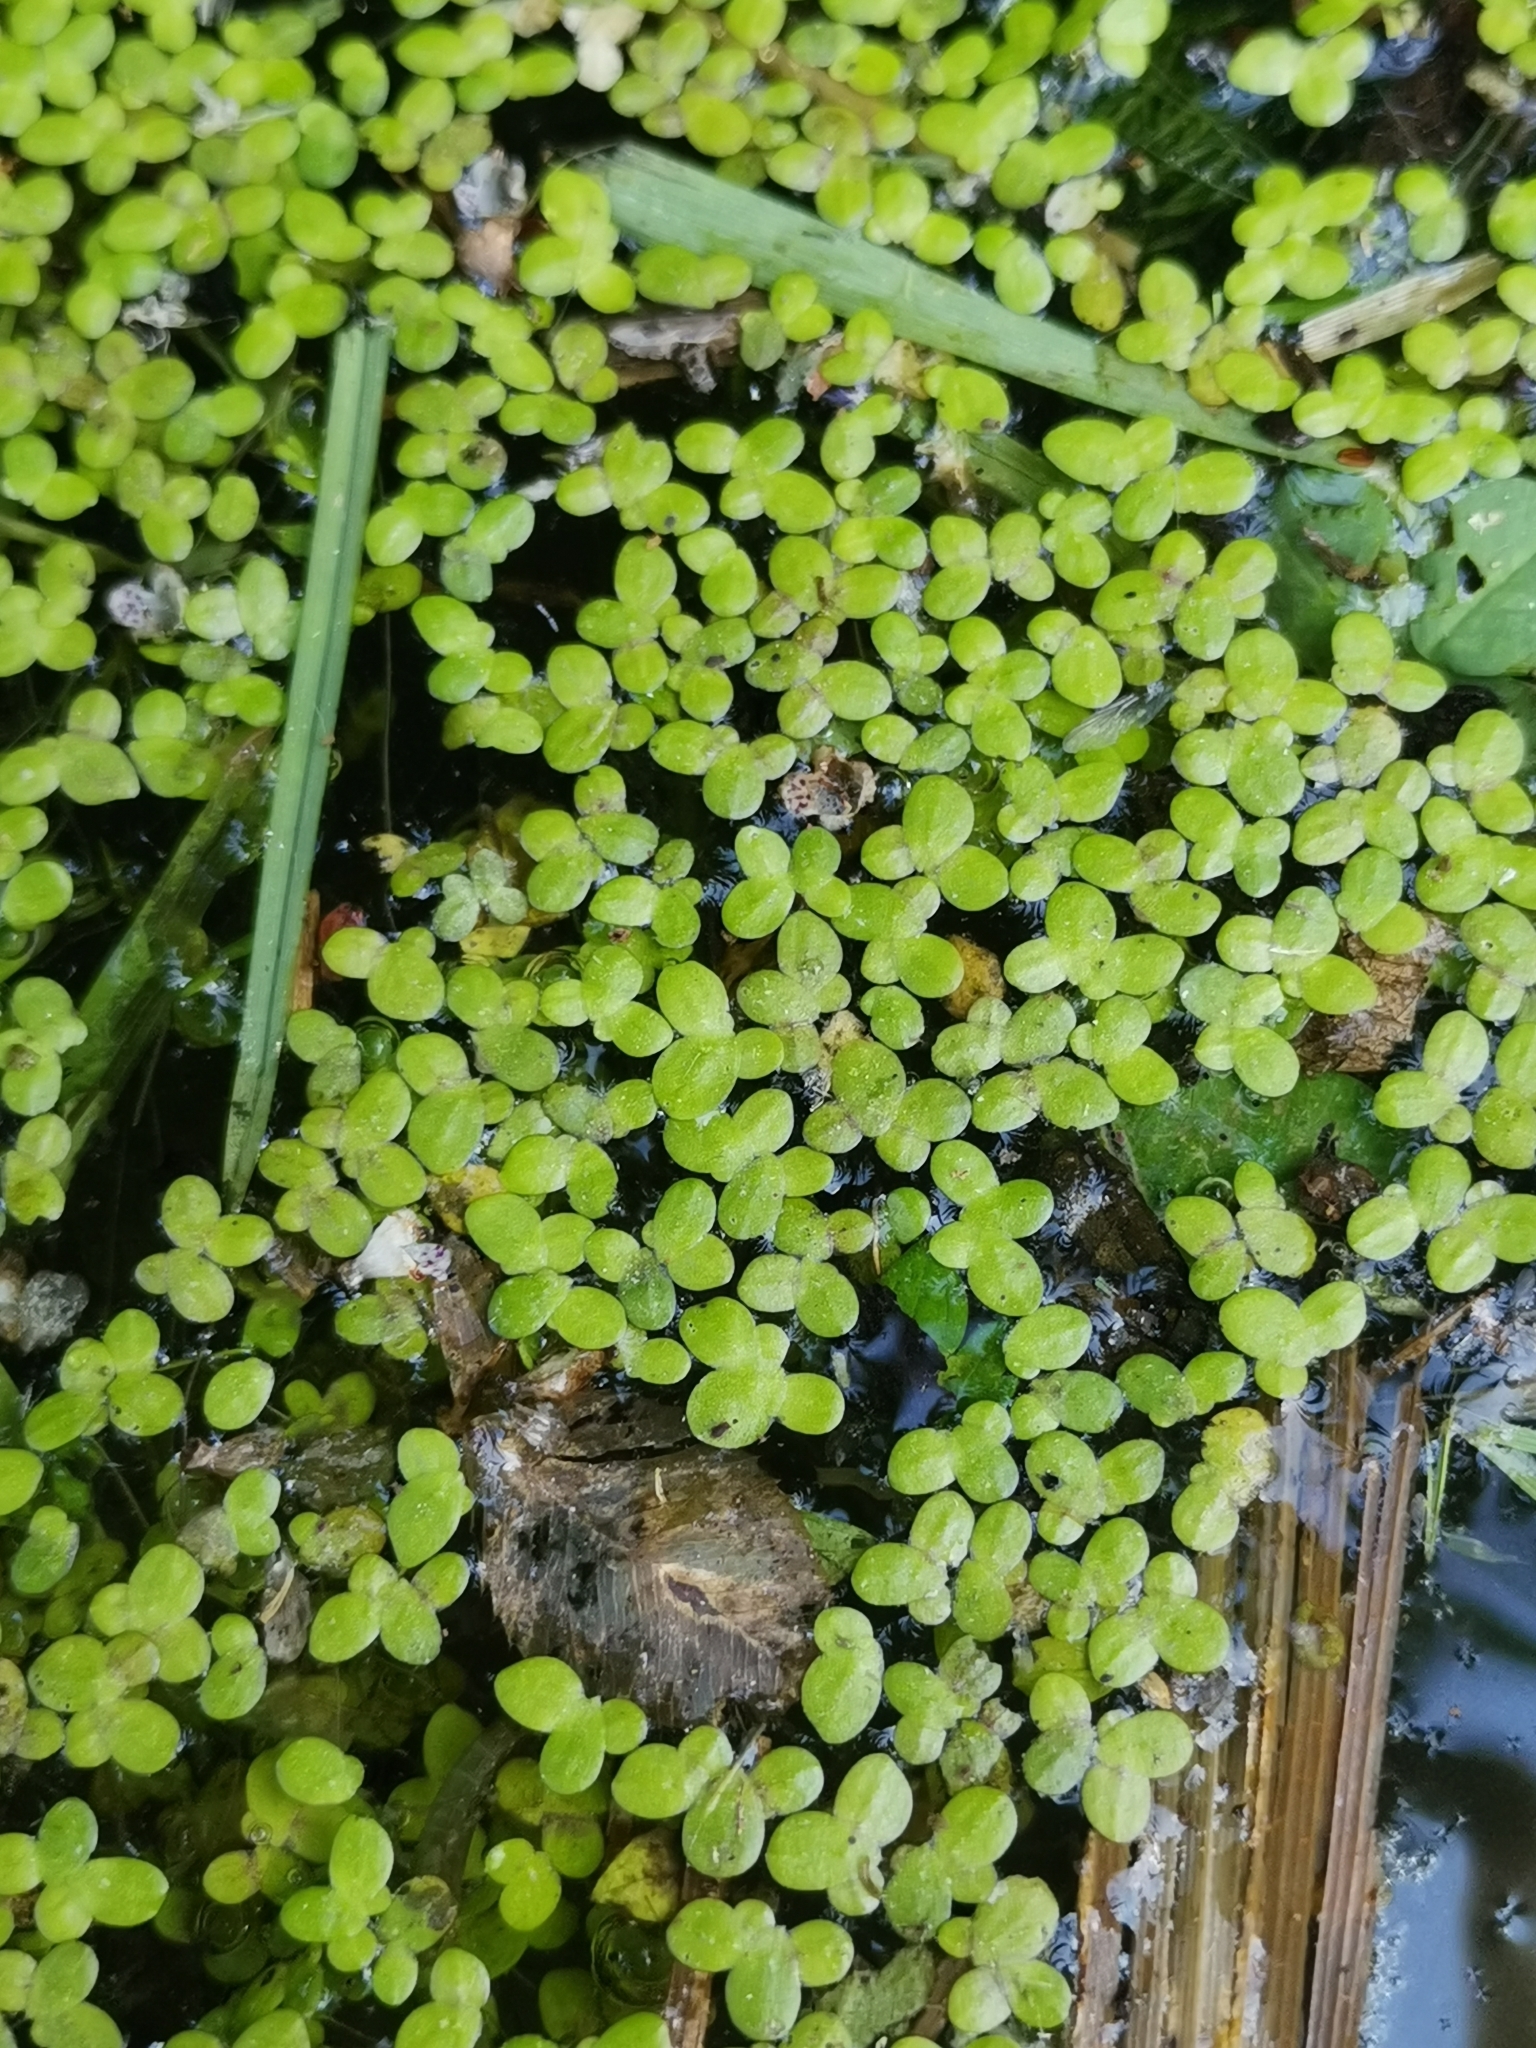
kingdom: Plantae
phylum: Tracheophyta
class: Liliopsida
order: Alismatales
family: Araceae
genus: Lemna
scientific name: Lemna minor
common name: Common duckweed
